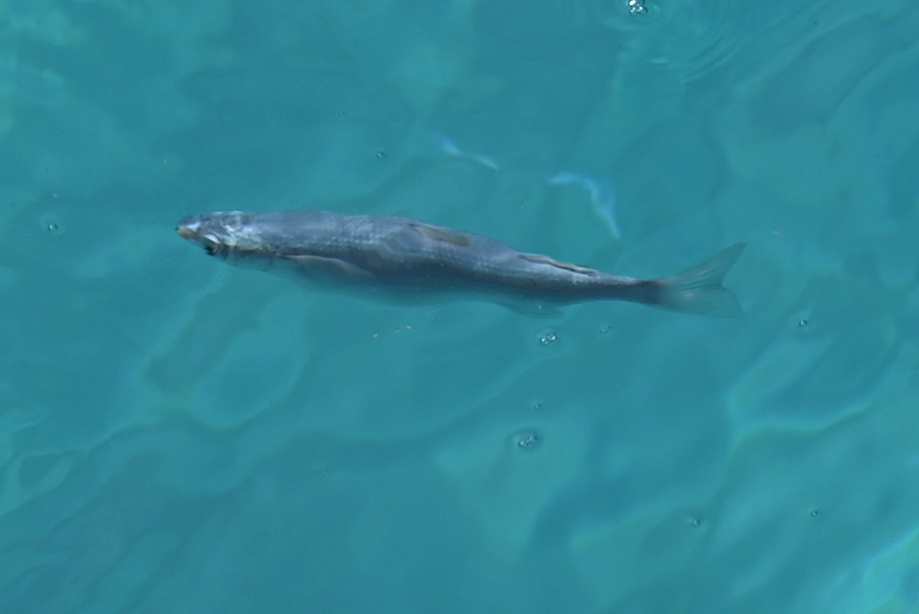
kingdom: Animalia
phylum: Chordata
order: Mugiliformes
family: Mugilidae
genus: Oedalechilus
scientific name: Oedalechilus labeo
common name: Boxlip mullet
